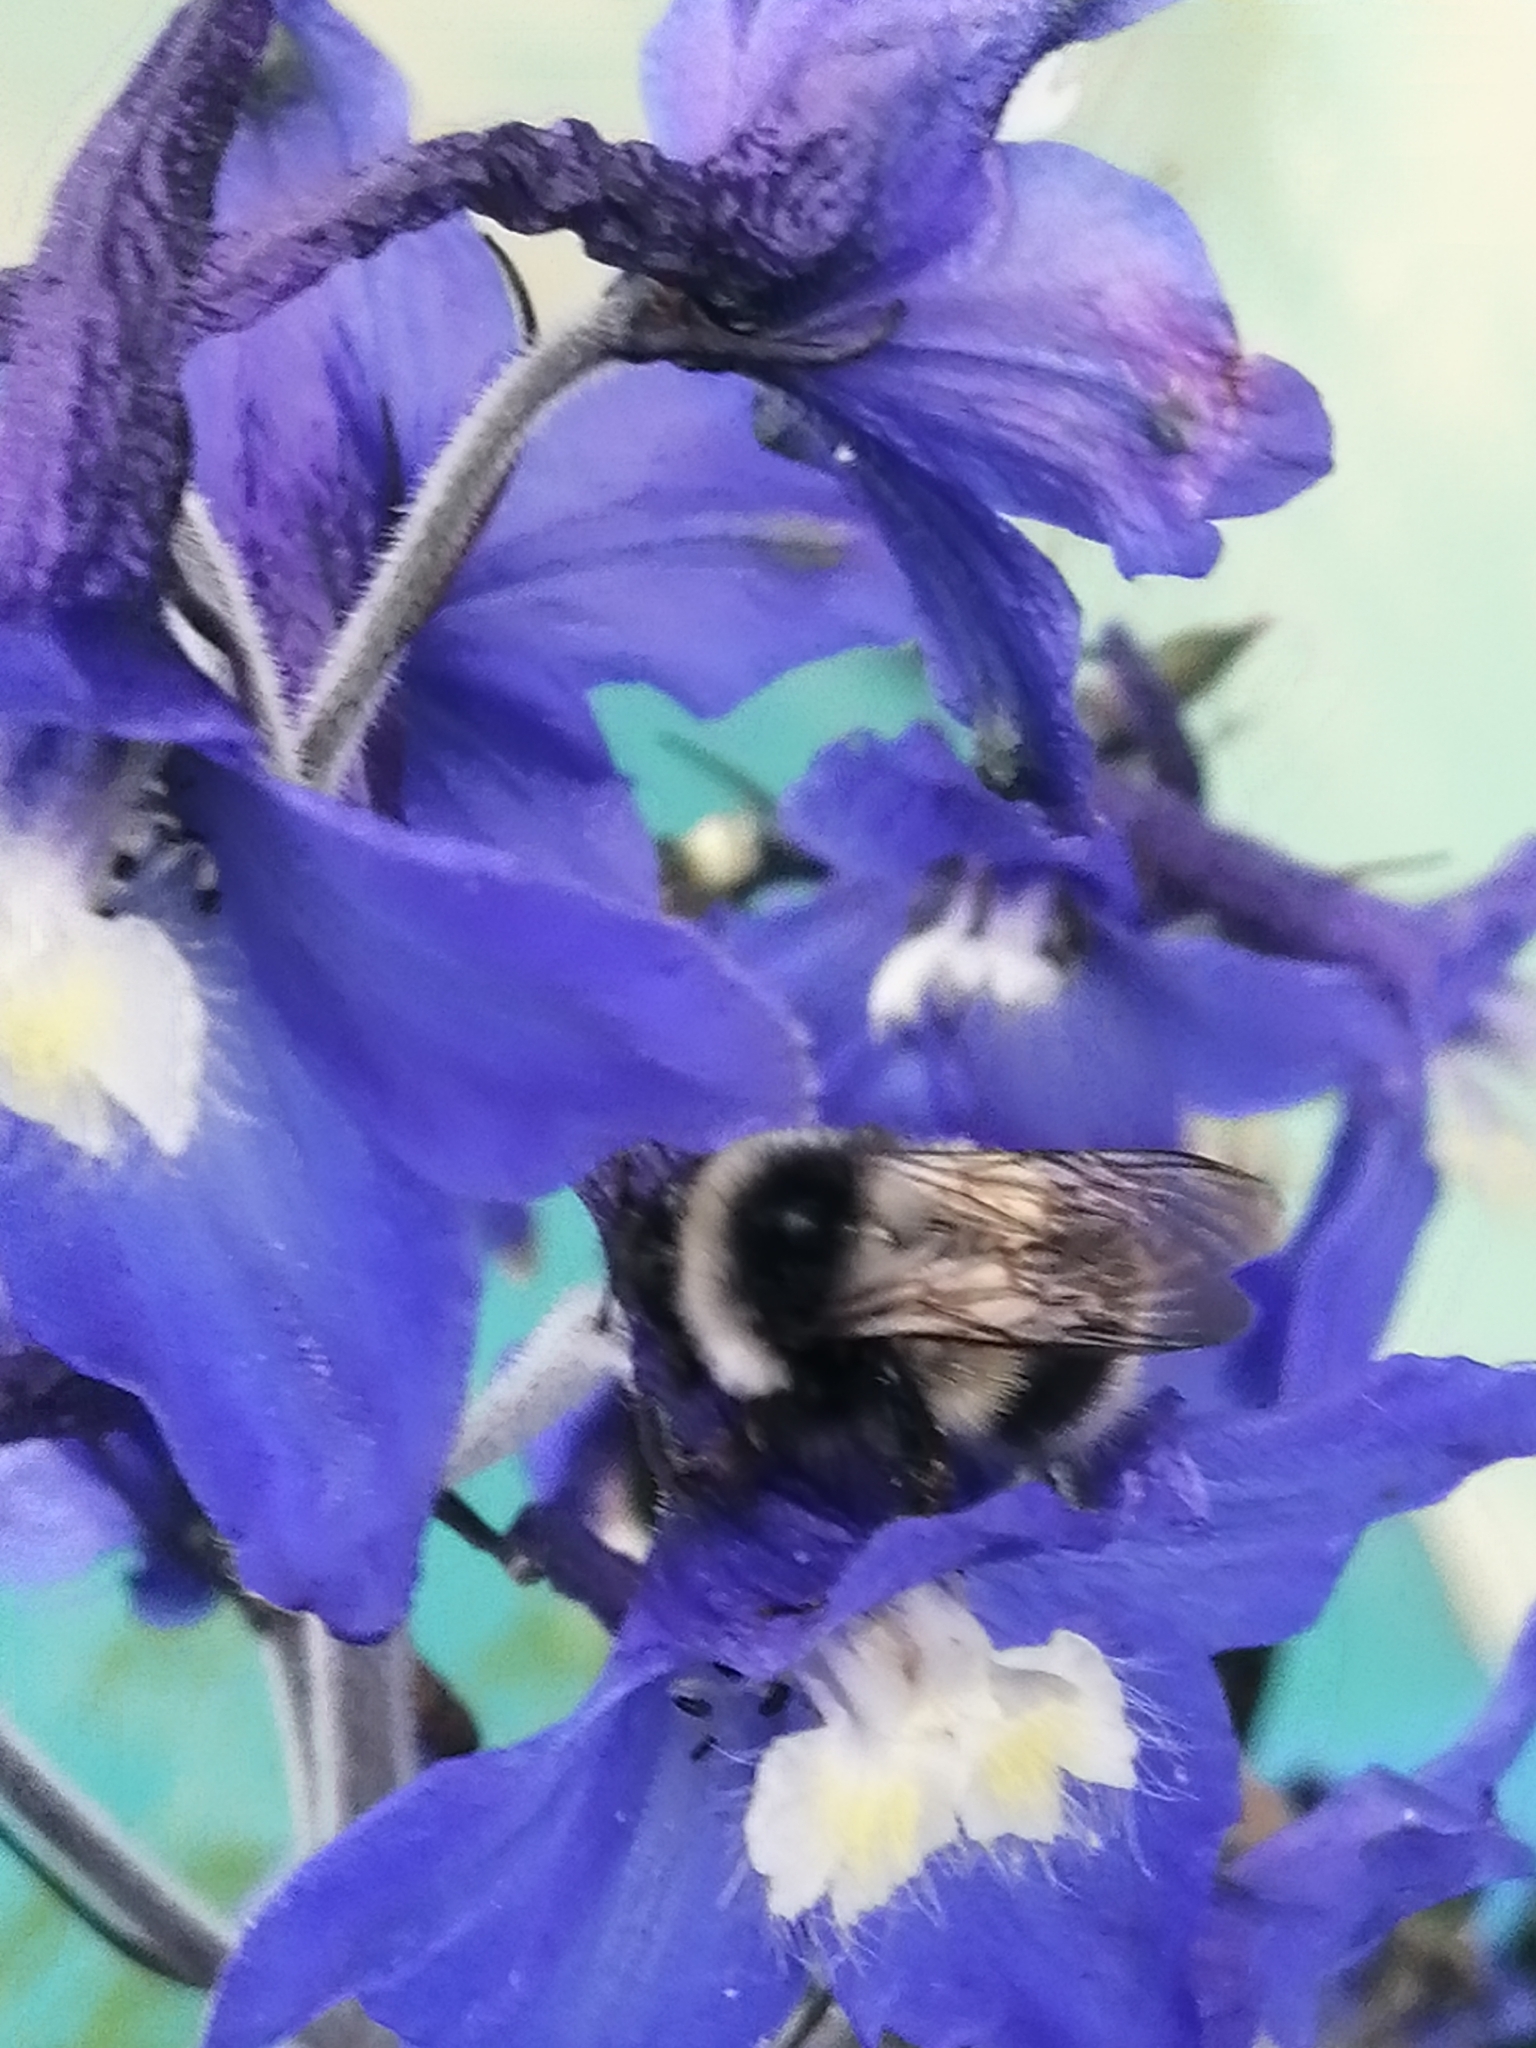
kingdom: Animalia
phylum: Arthropoda
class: Insecta
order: Hymenoptera
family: Apidae
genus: Bombus
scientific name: Bombus patagiatus
